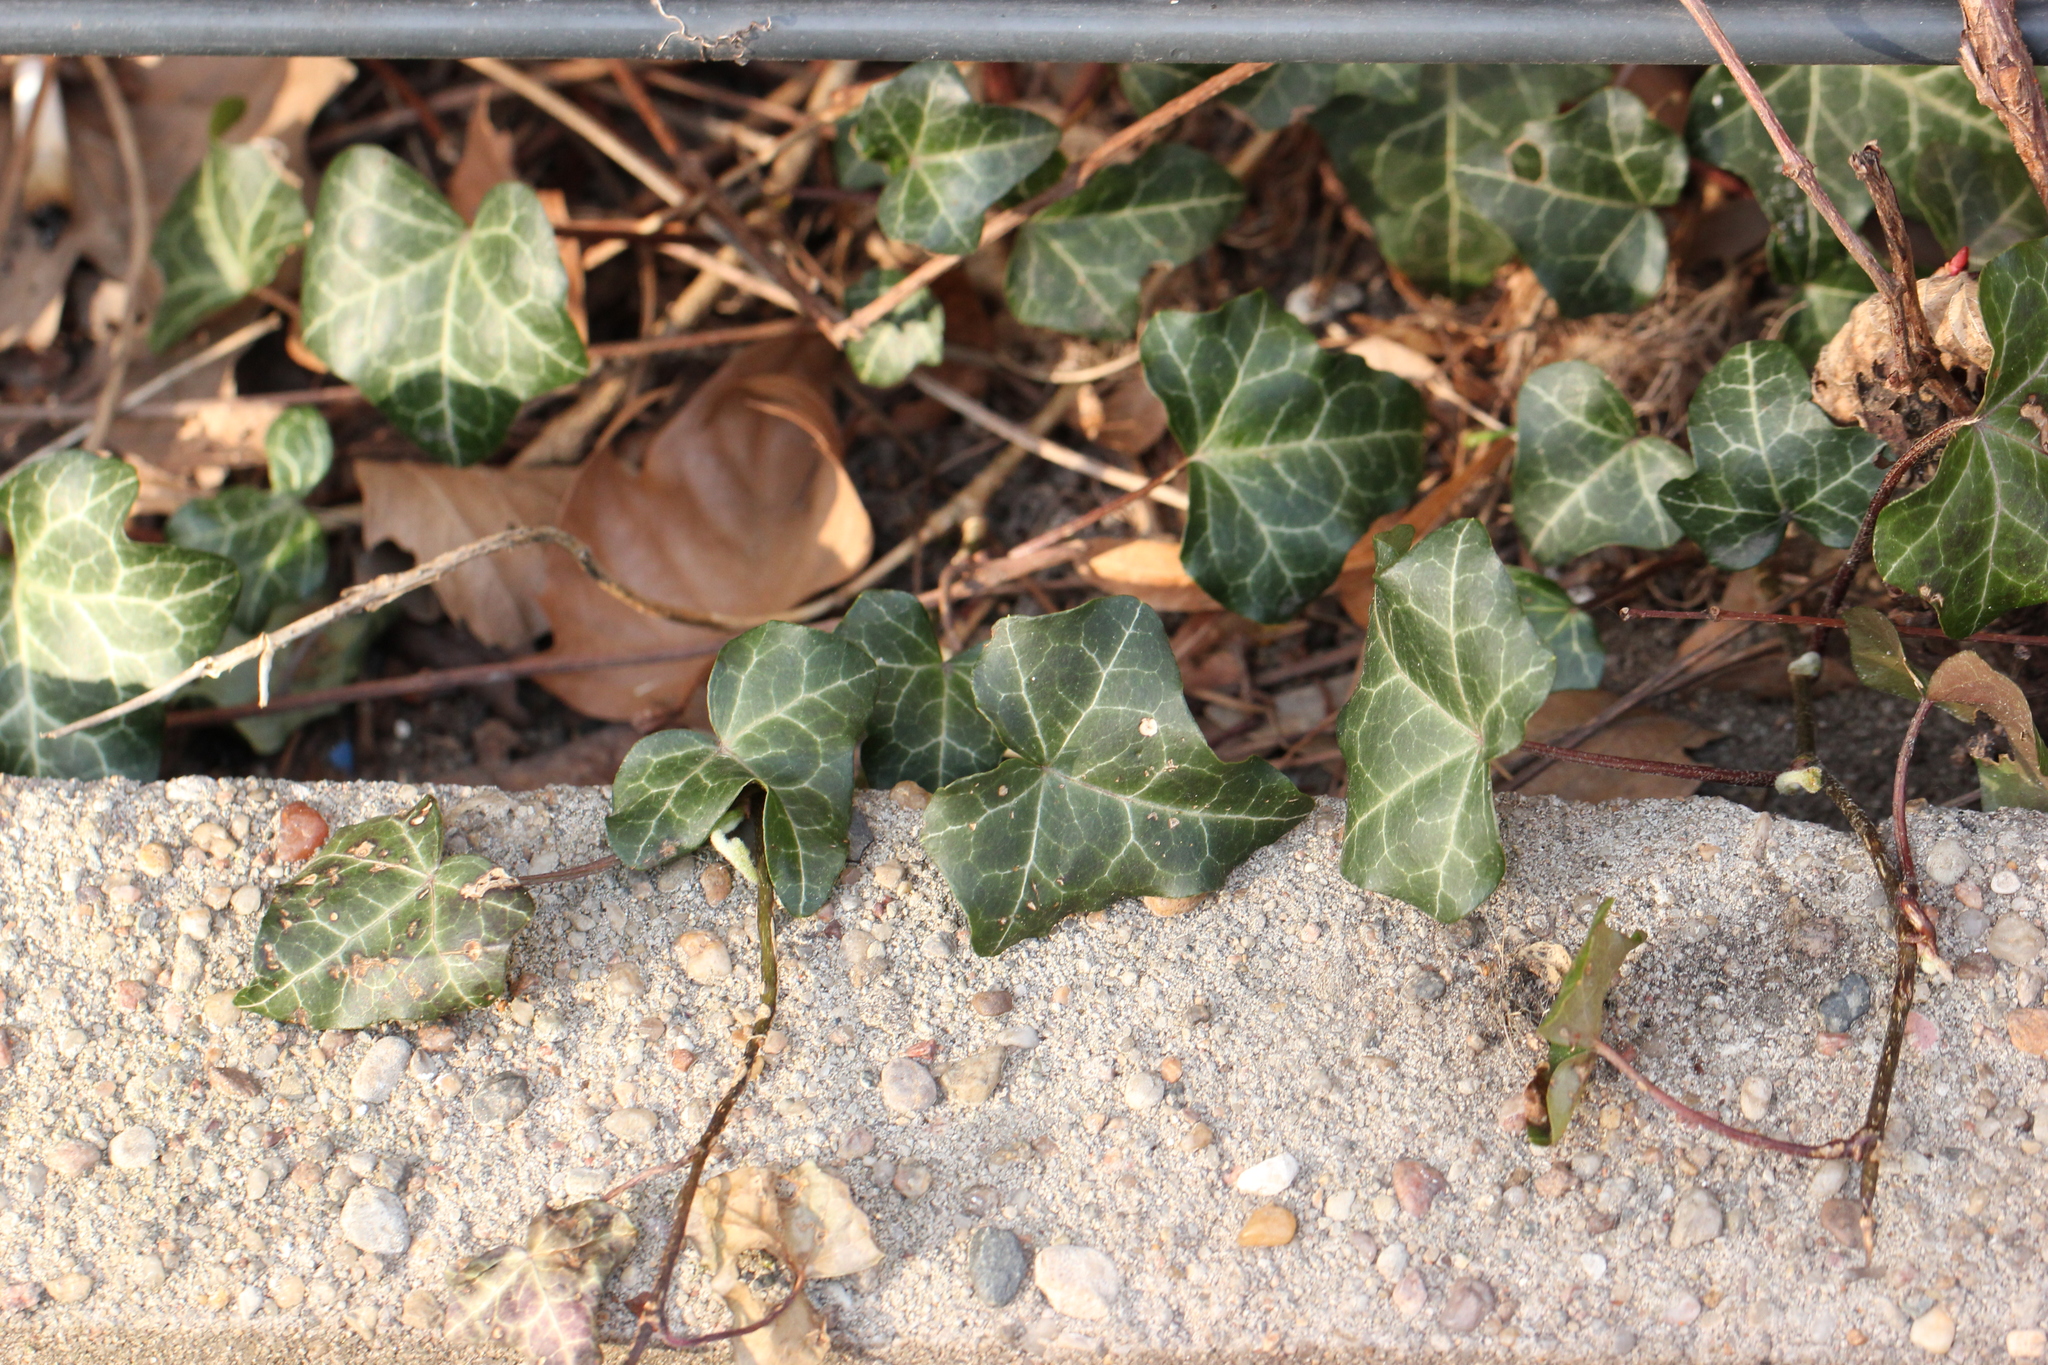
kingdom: Plantae
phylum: Tracheophyta
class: Magnoliopsida
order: Apiales
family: Araliaceae
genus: Hedera
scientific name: Hedera helix
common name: Ivy
